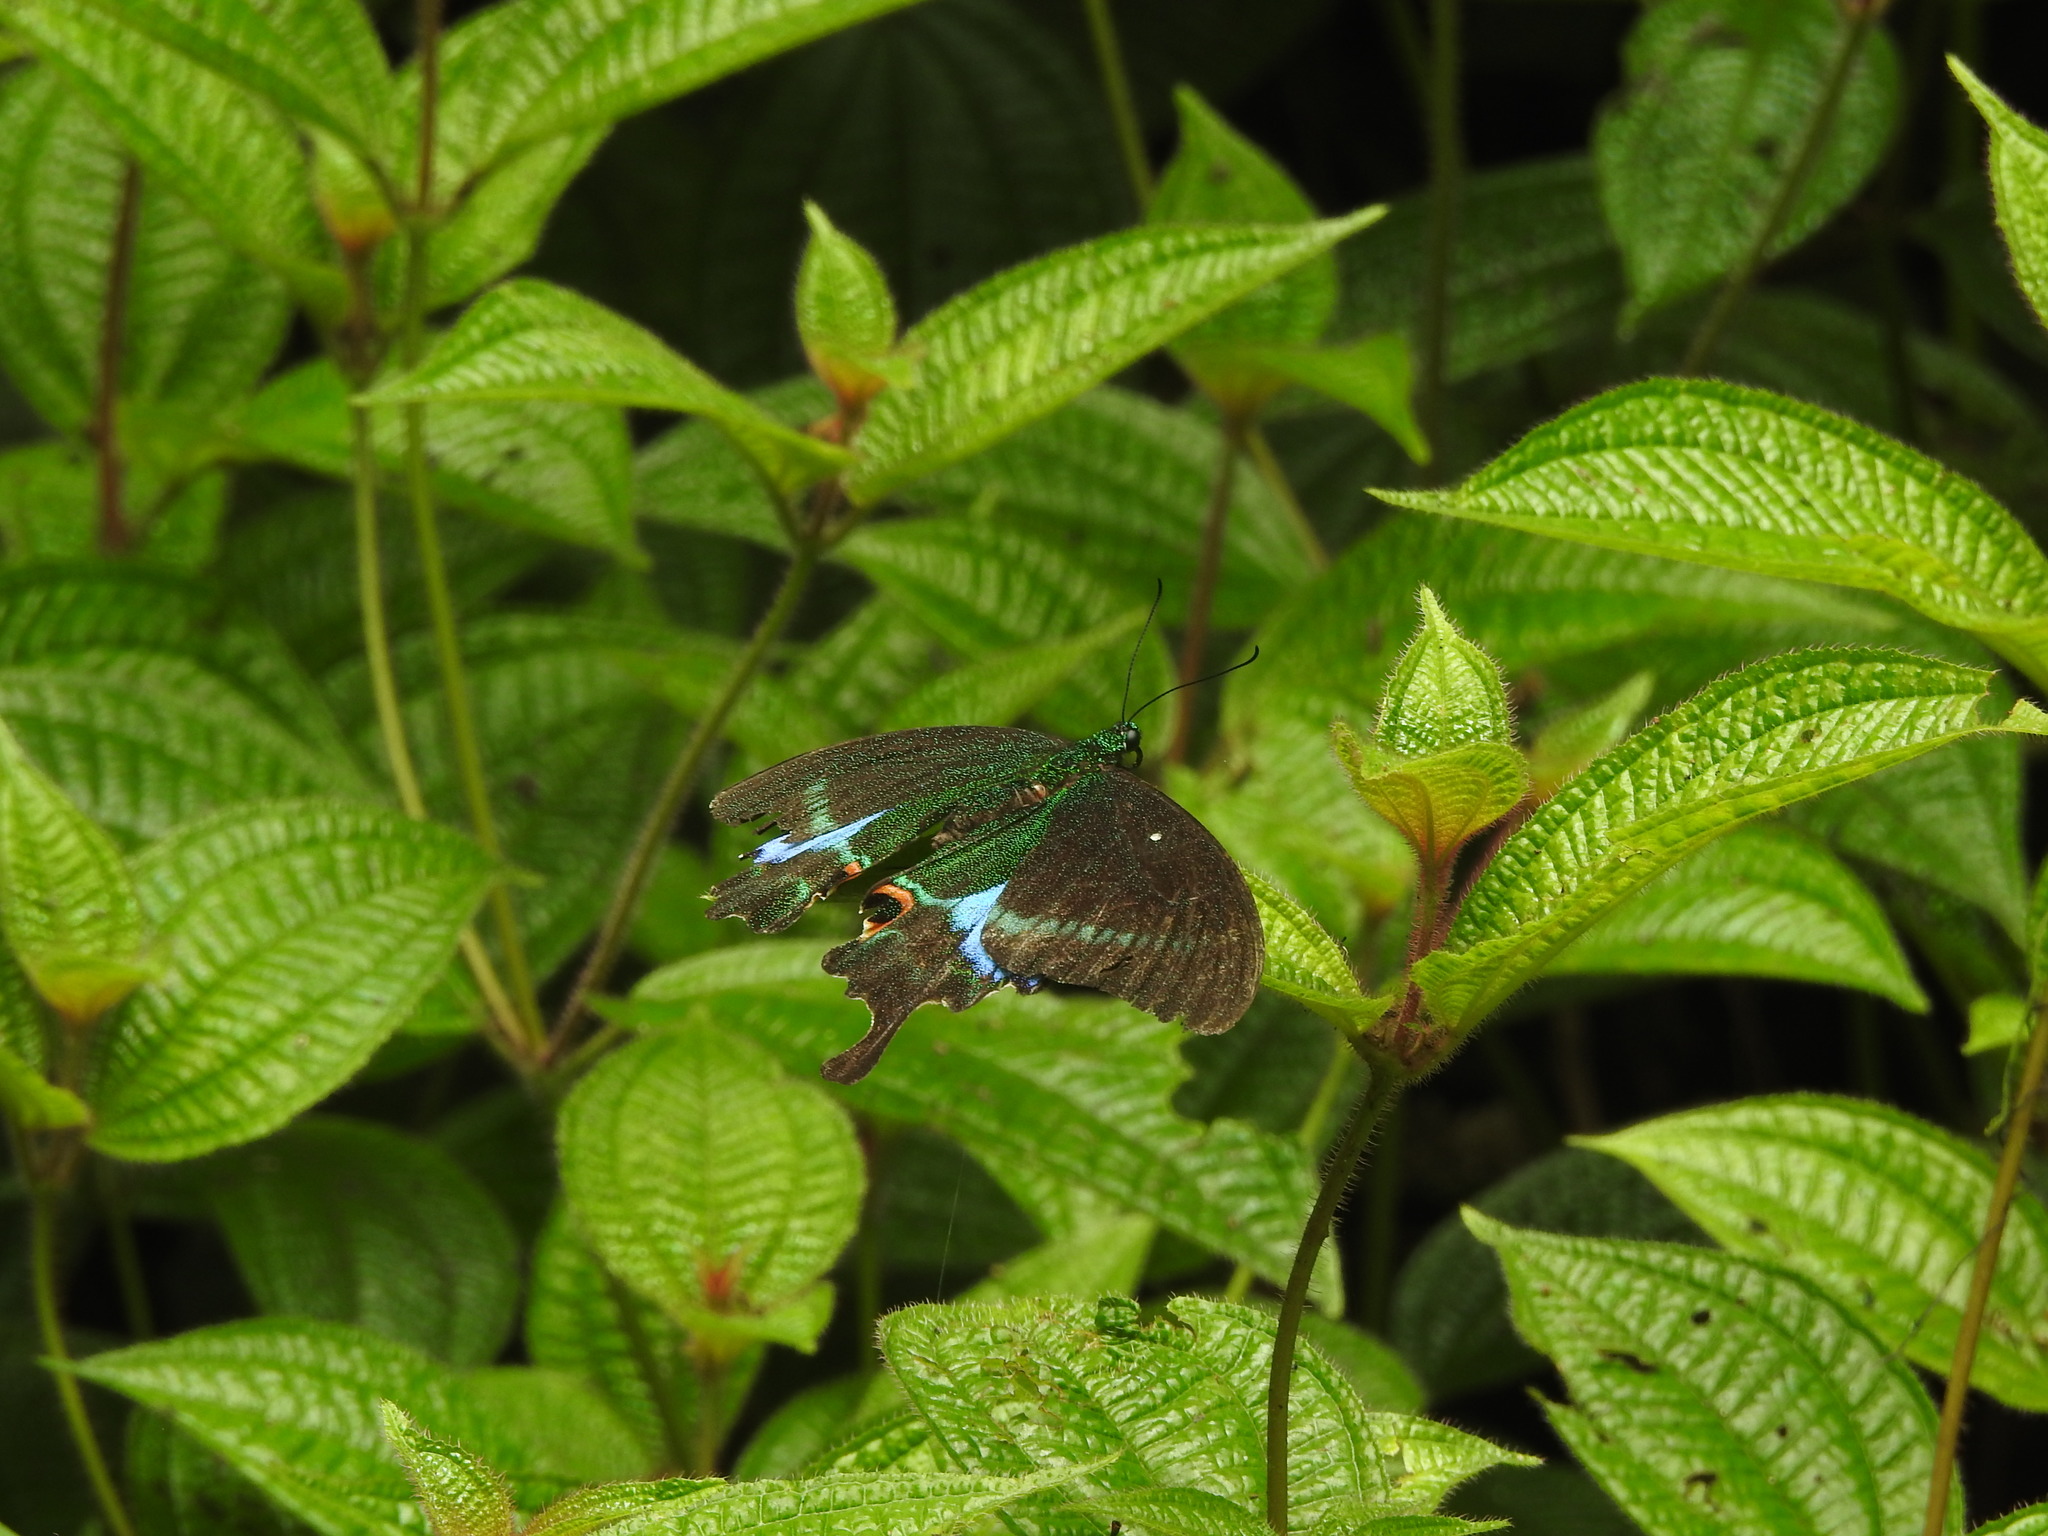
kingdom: Animalia
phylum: Arthropoda
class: Insecta
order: Lepidoptera
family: Papilionidae
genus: Papilio
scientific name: Papilio paris
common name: Paris peacock
